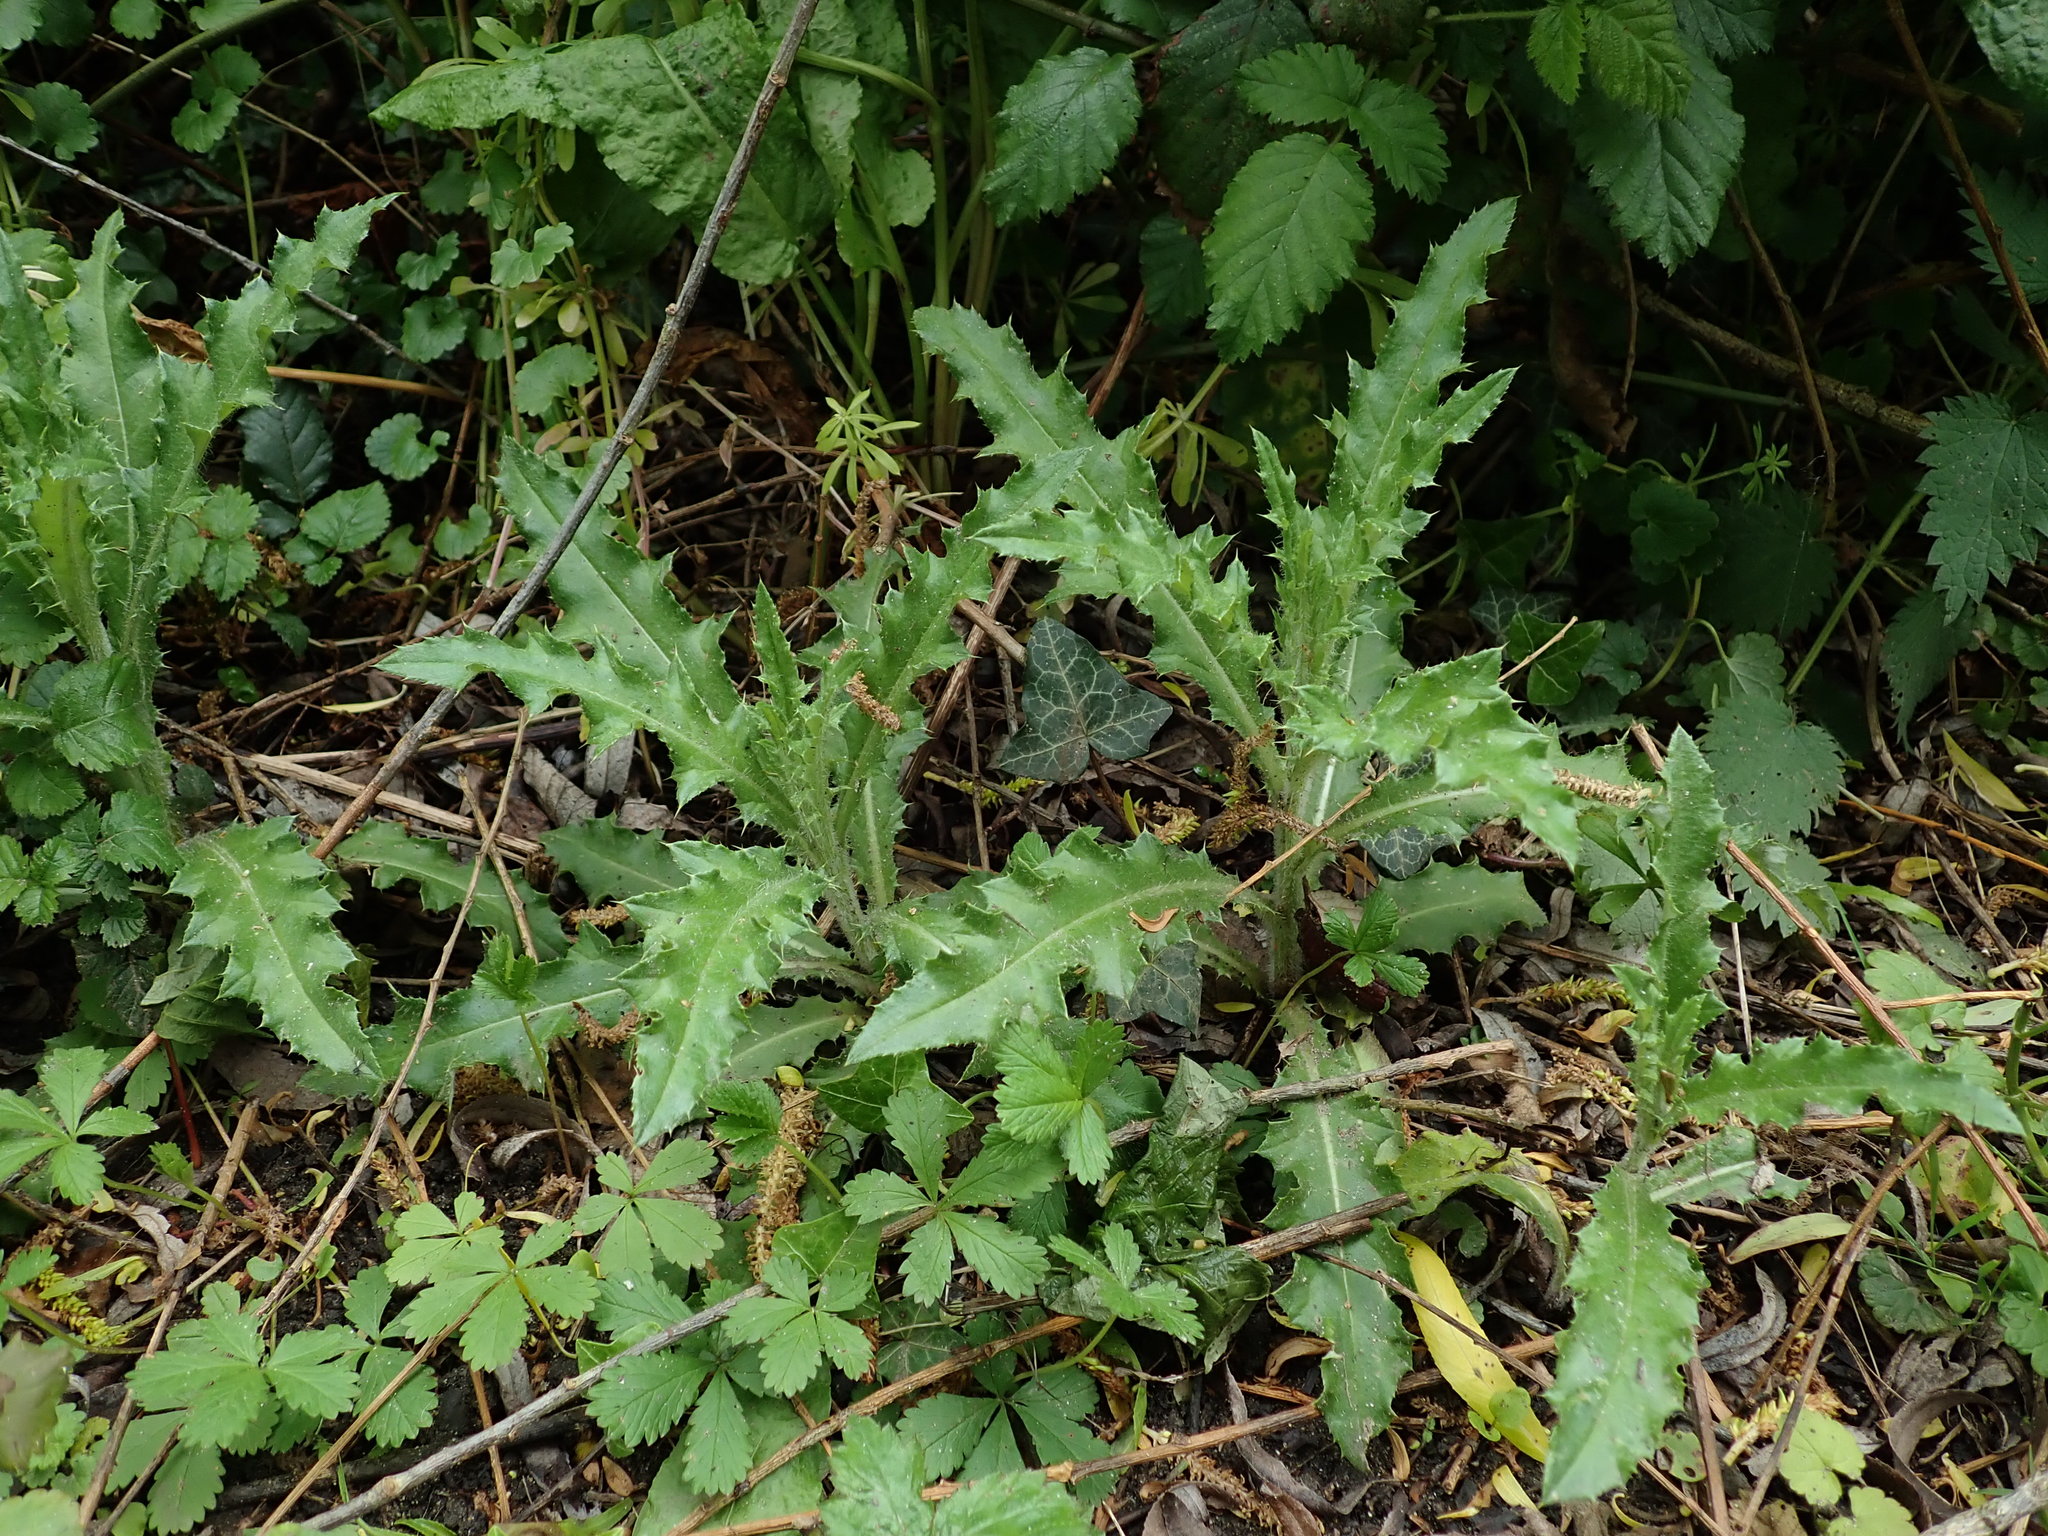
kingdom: Plantae
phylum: Tracheophyta
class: Magnoliopsida
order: Asterales
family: Asteraceae
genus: Cirsium
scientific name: Cirsium arvense
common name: Creeping thistle
